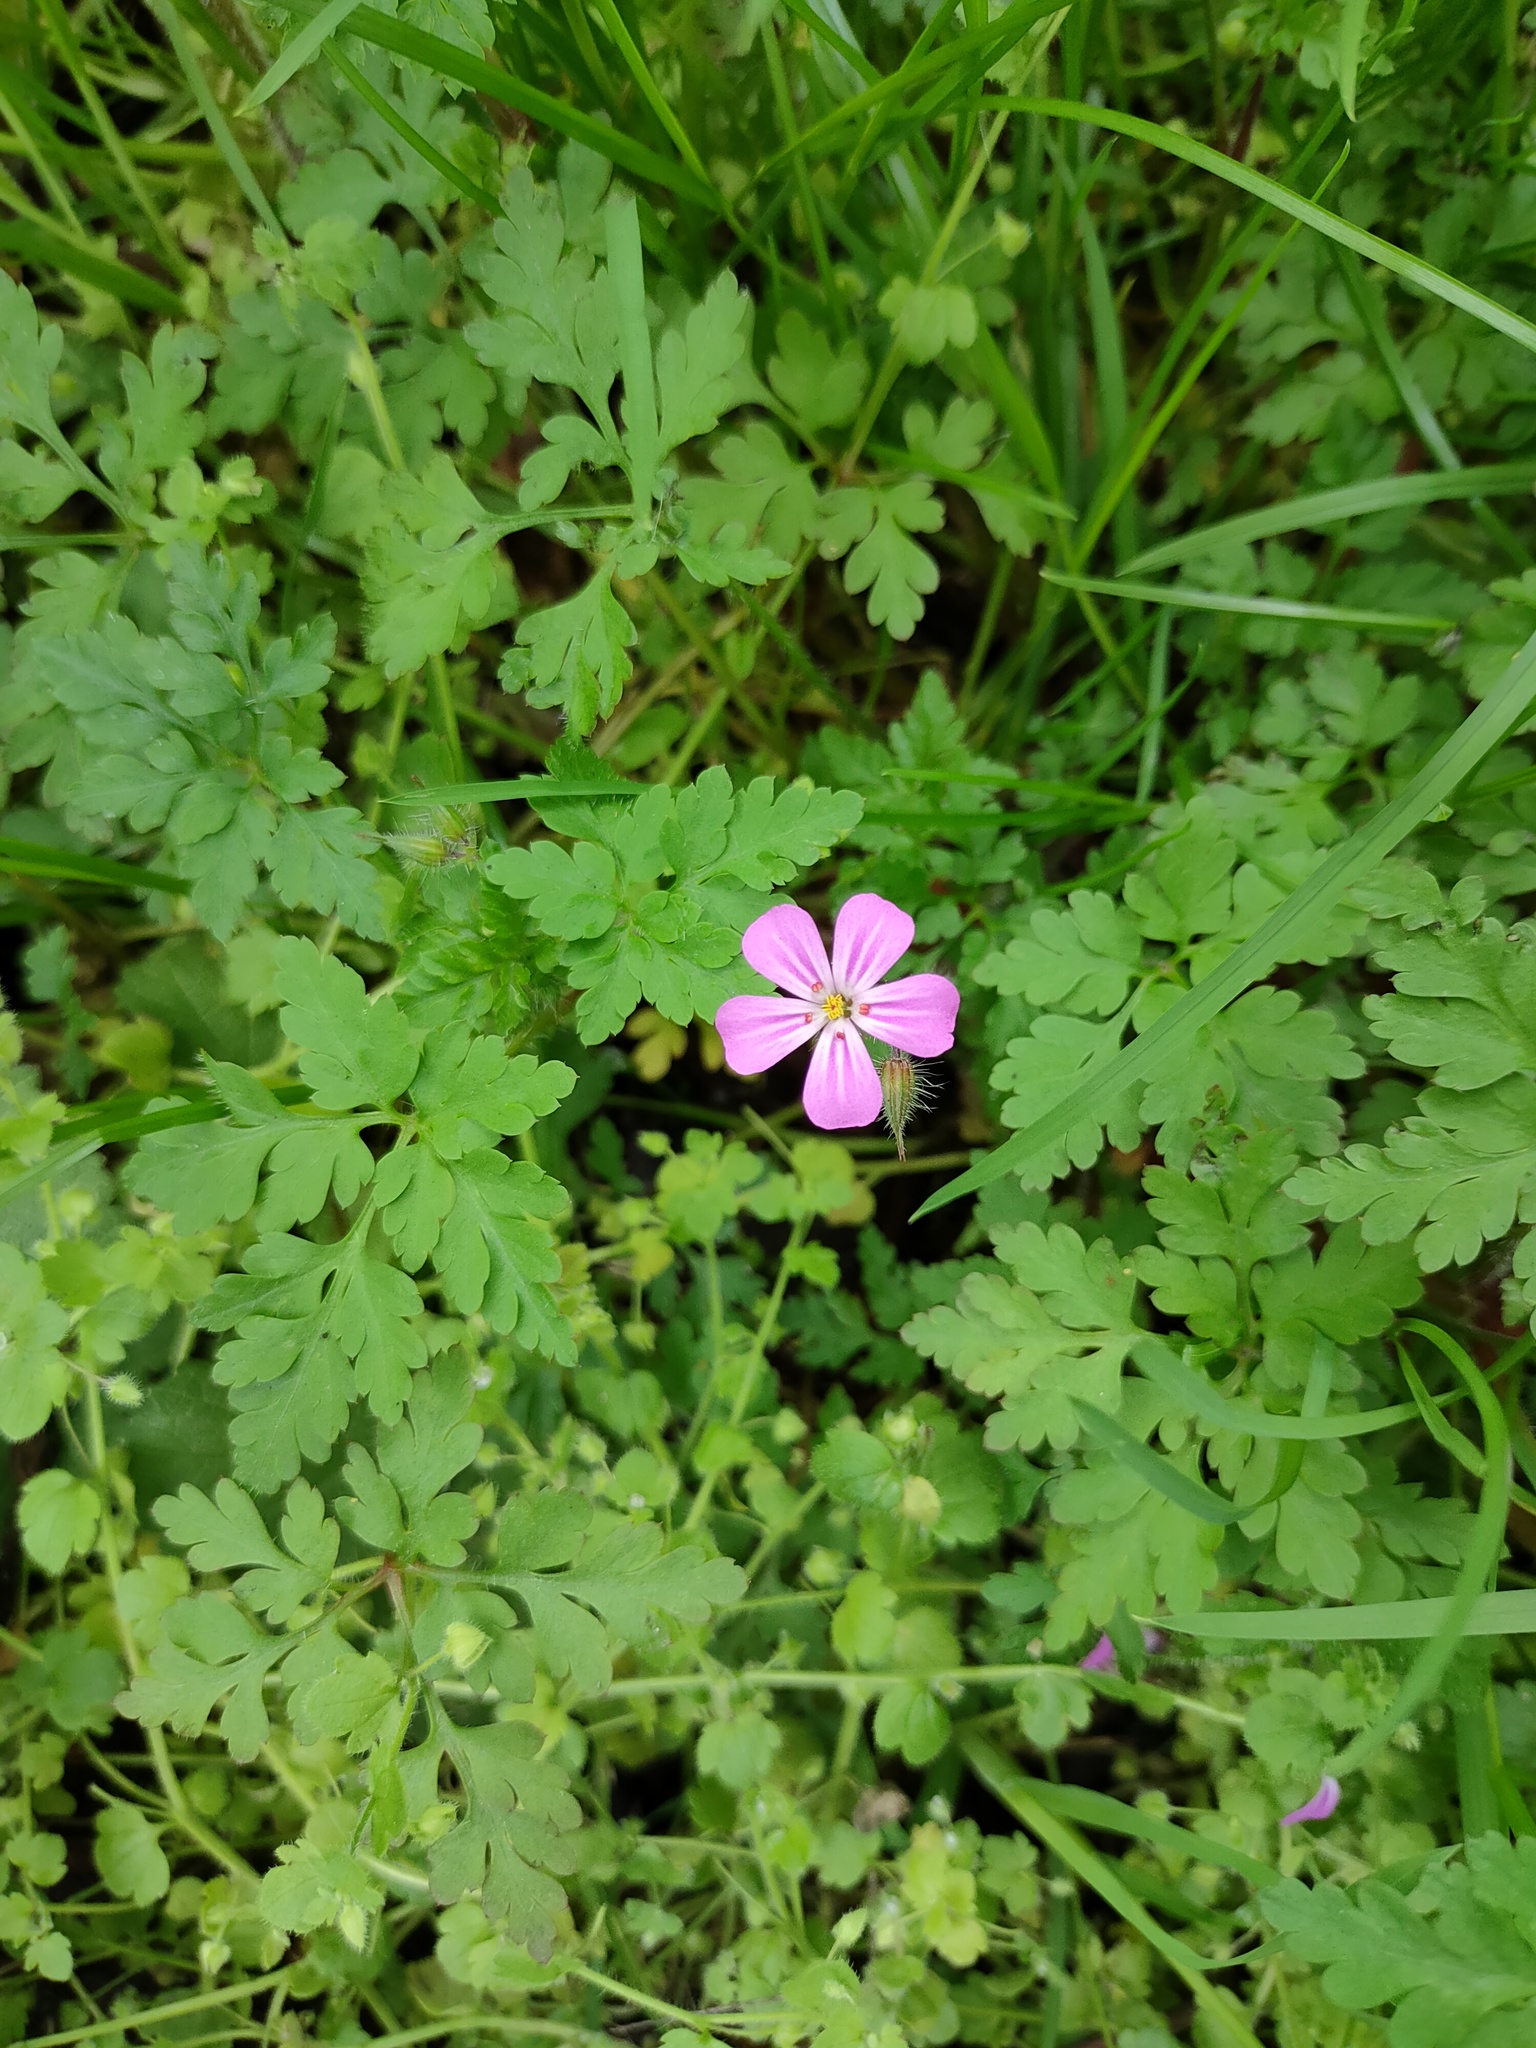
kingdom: Plantae
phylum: Tracheophyta
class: Magnoliopsida
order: Geraniales
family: Geraniaceae
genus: Geranium
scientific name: Geranium robertianum
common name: Herb-robert
